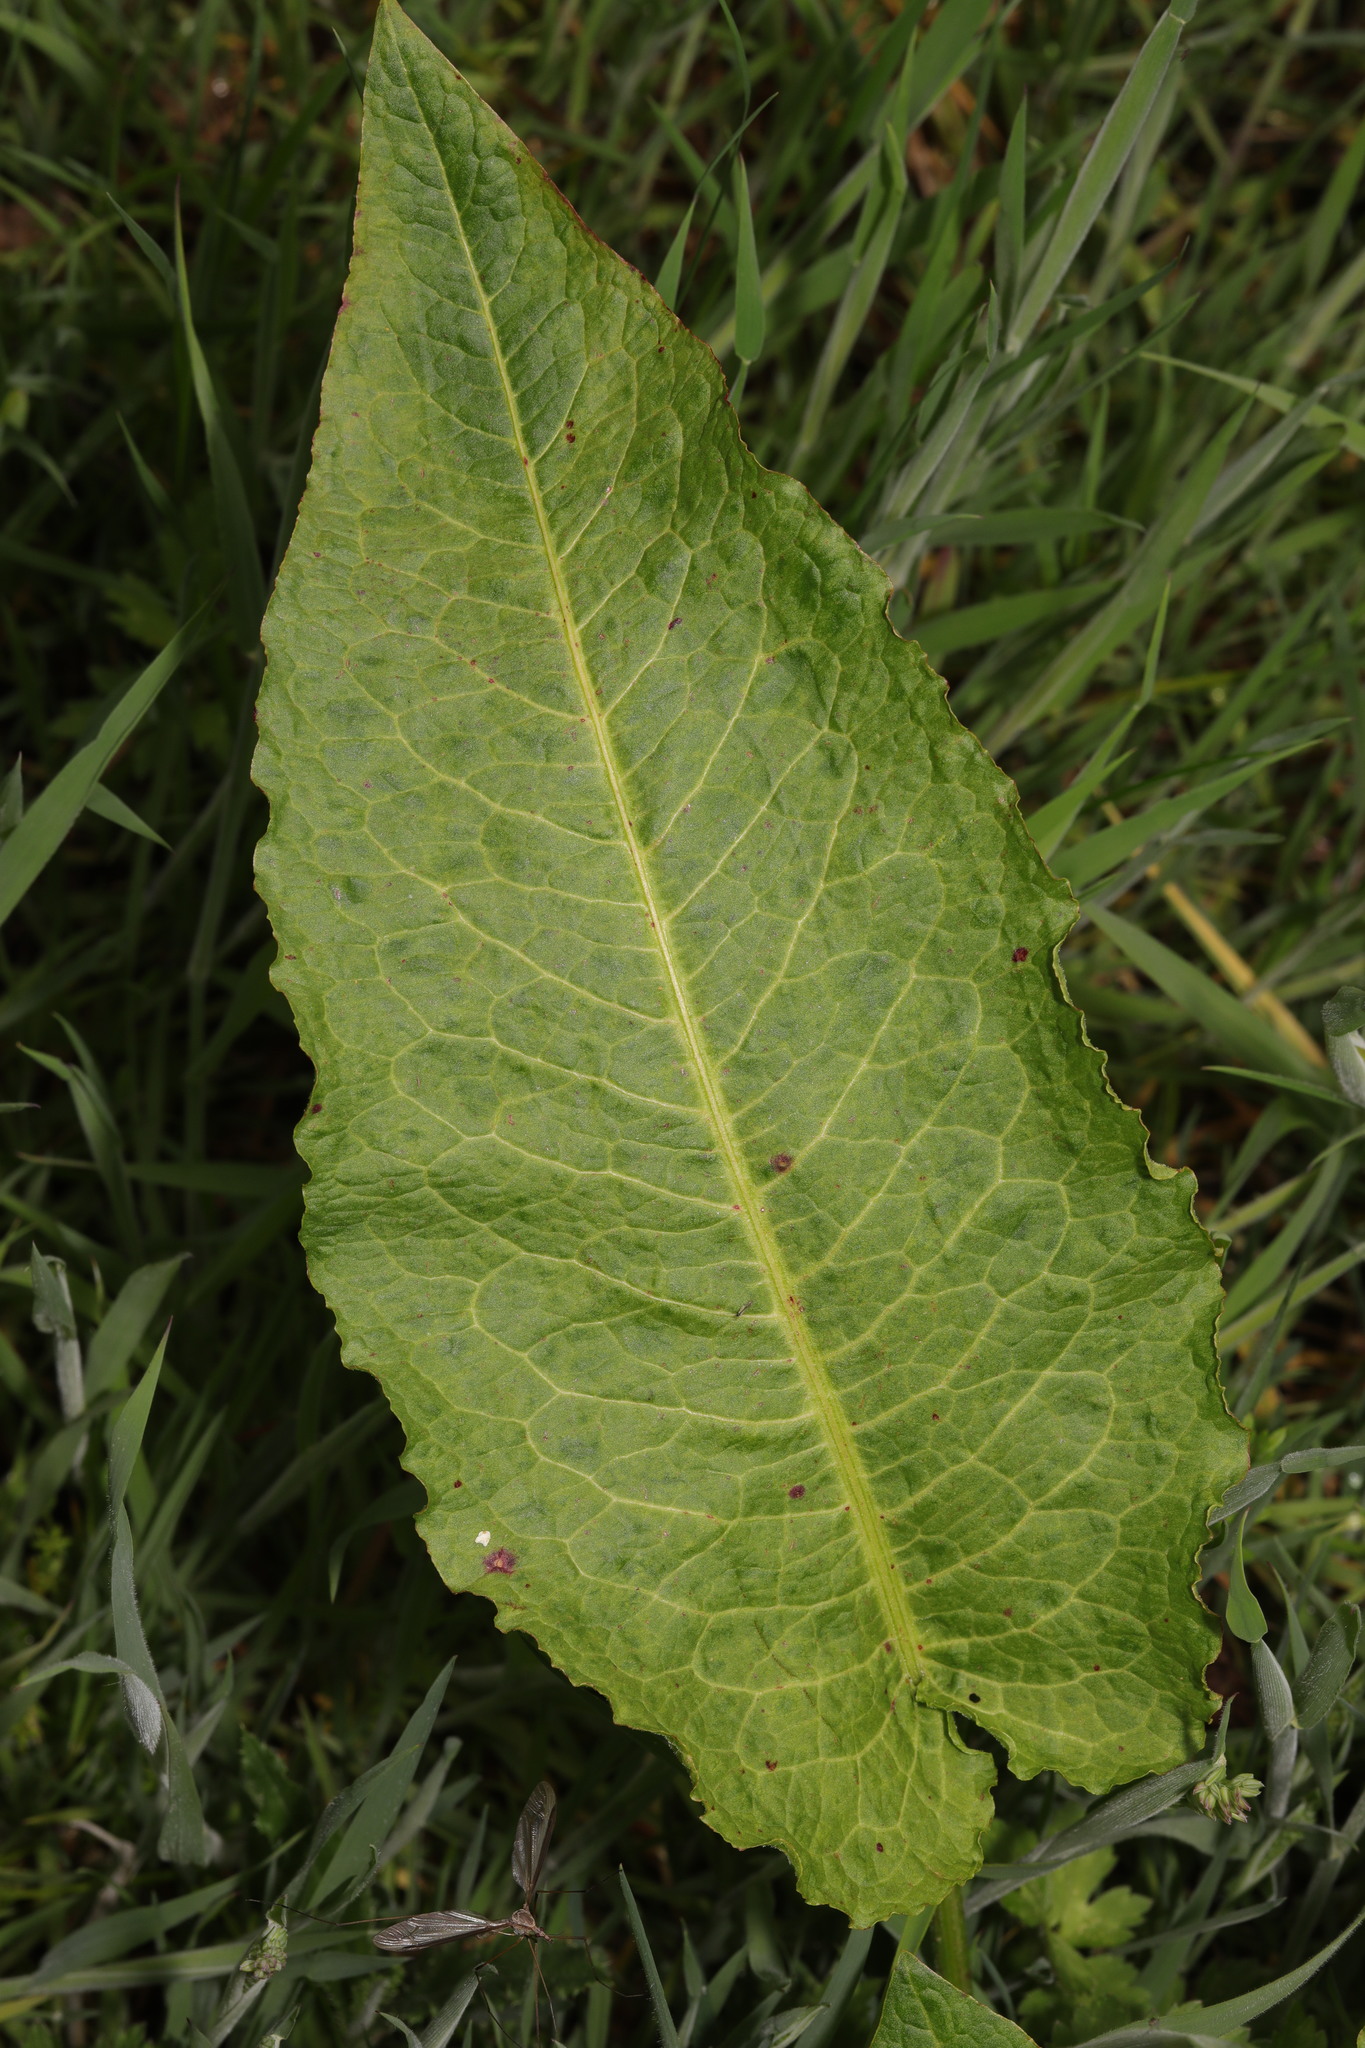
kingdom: Plantae
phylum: Tracheophyta
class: Magnoliopsida
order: Caryophyllales
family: Polygonaceae
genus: Rumex
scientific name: Rumex obtusifolius
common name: Bitter dock
